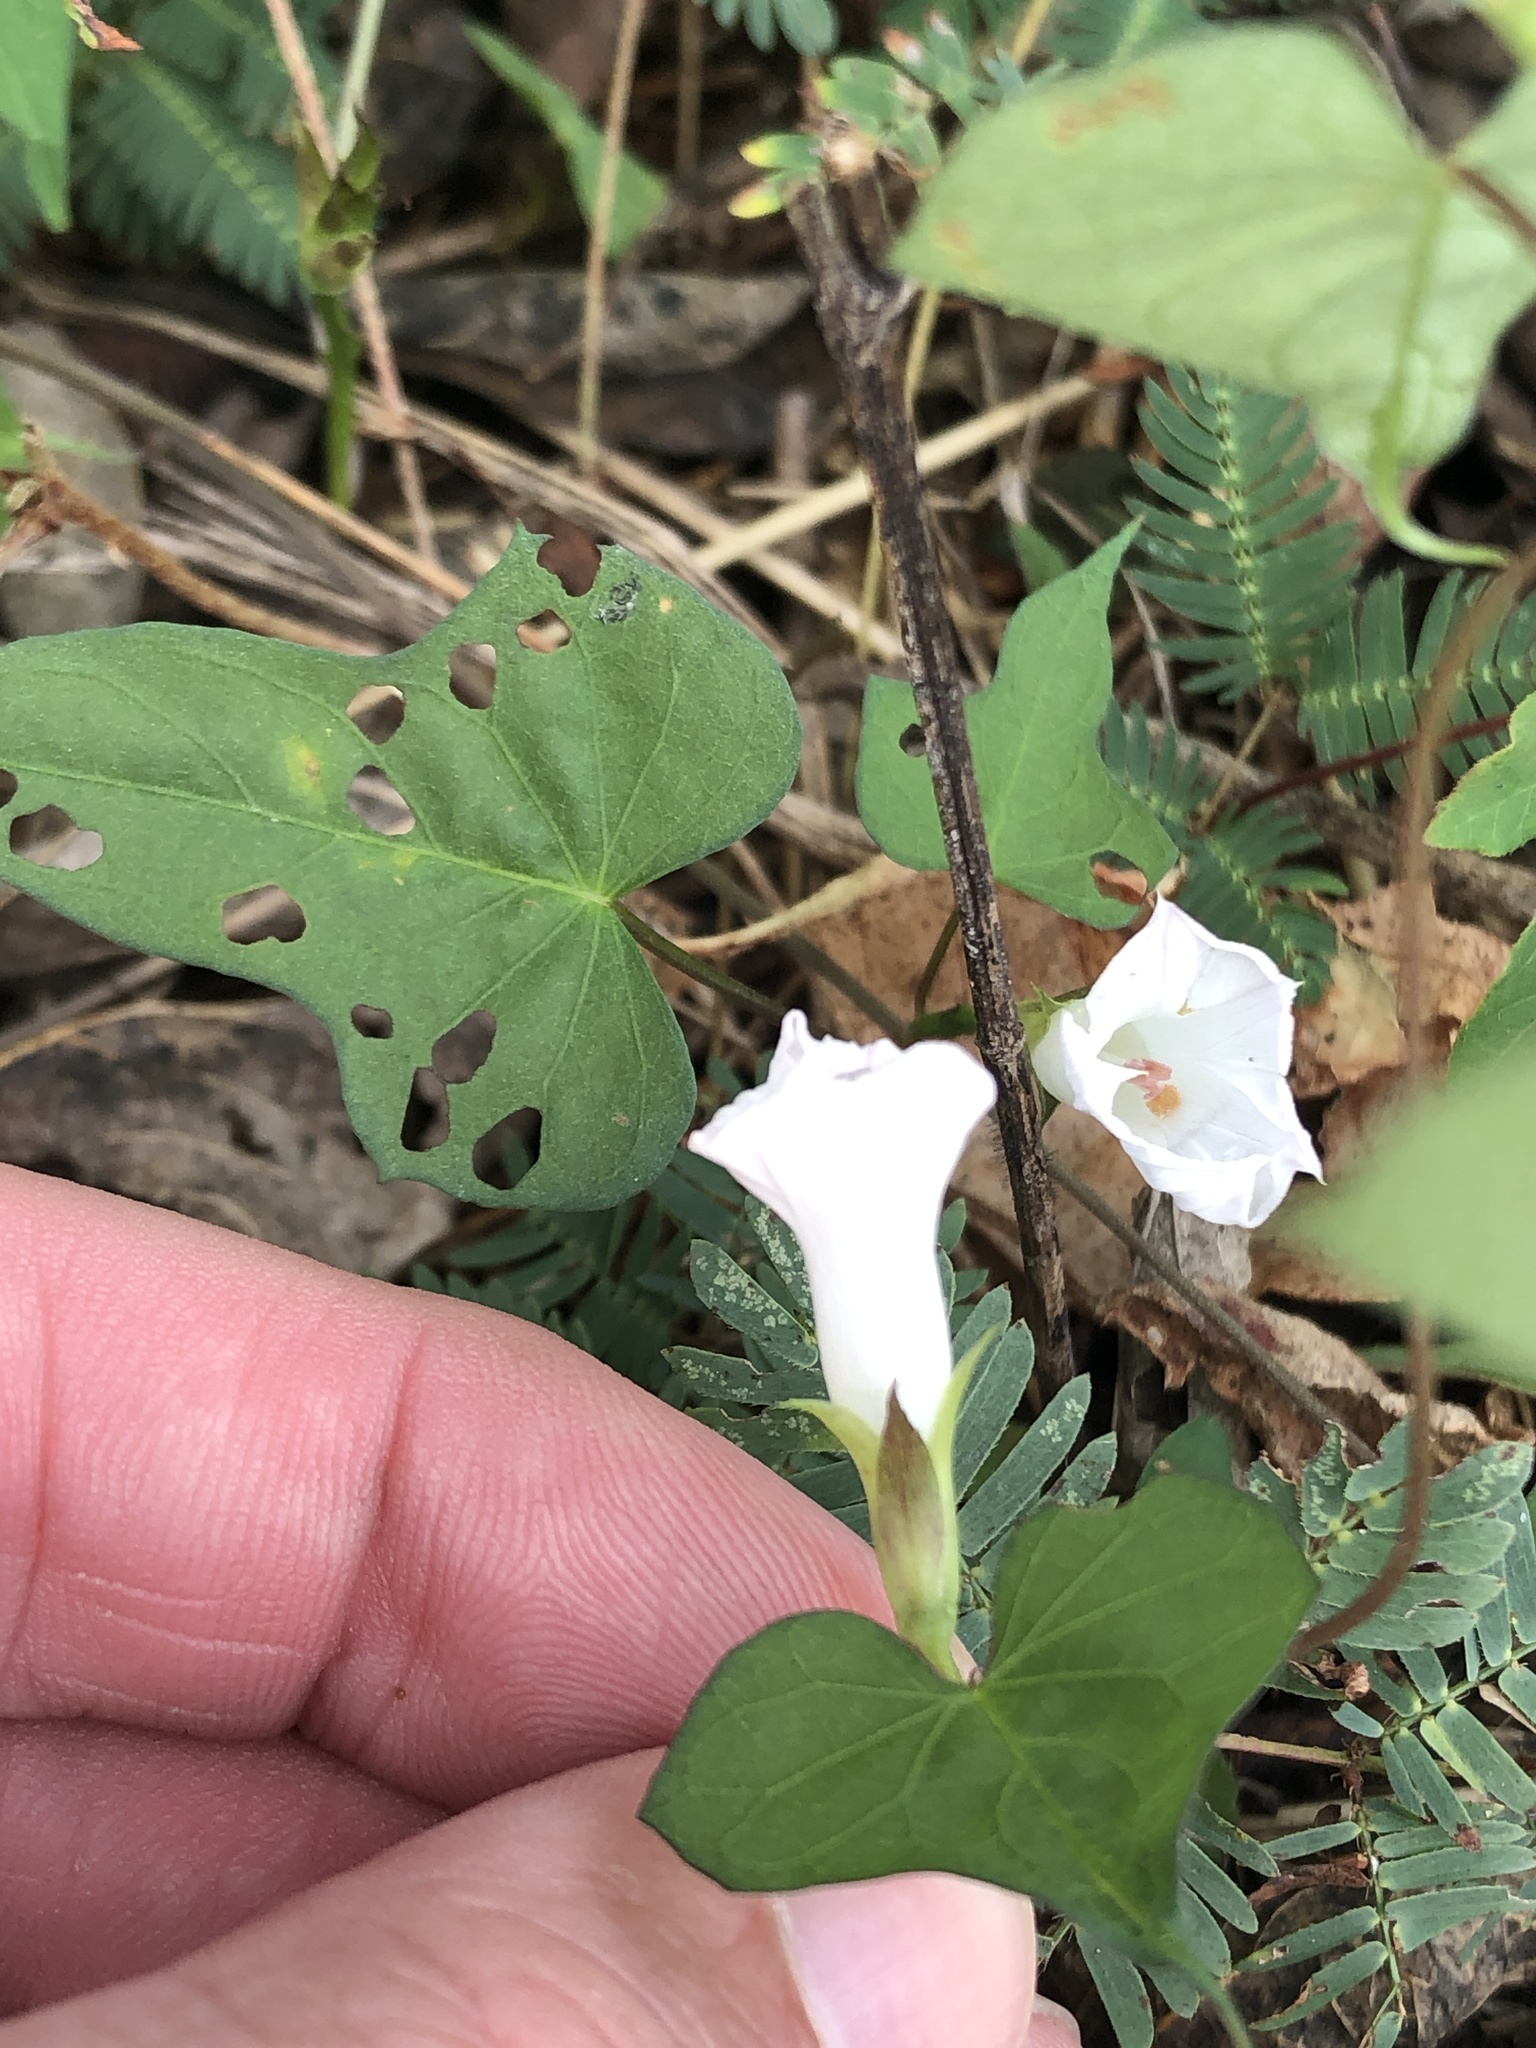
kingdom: Plantae
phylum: Tracheophyta
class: Magnoliopsida
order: Solanales
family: Convolvulaceae
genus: Ipomoea
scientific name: Ipomoea lacunosa
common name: White morning-glory
